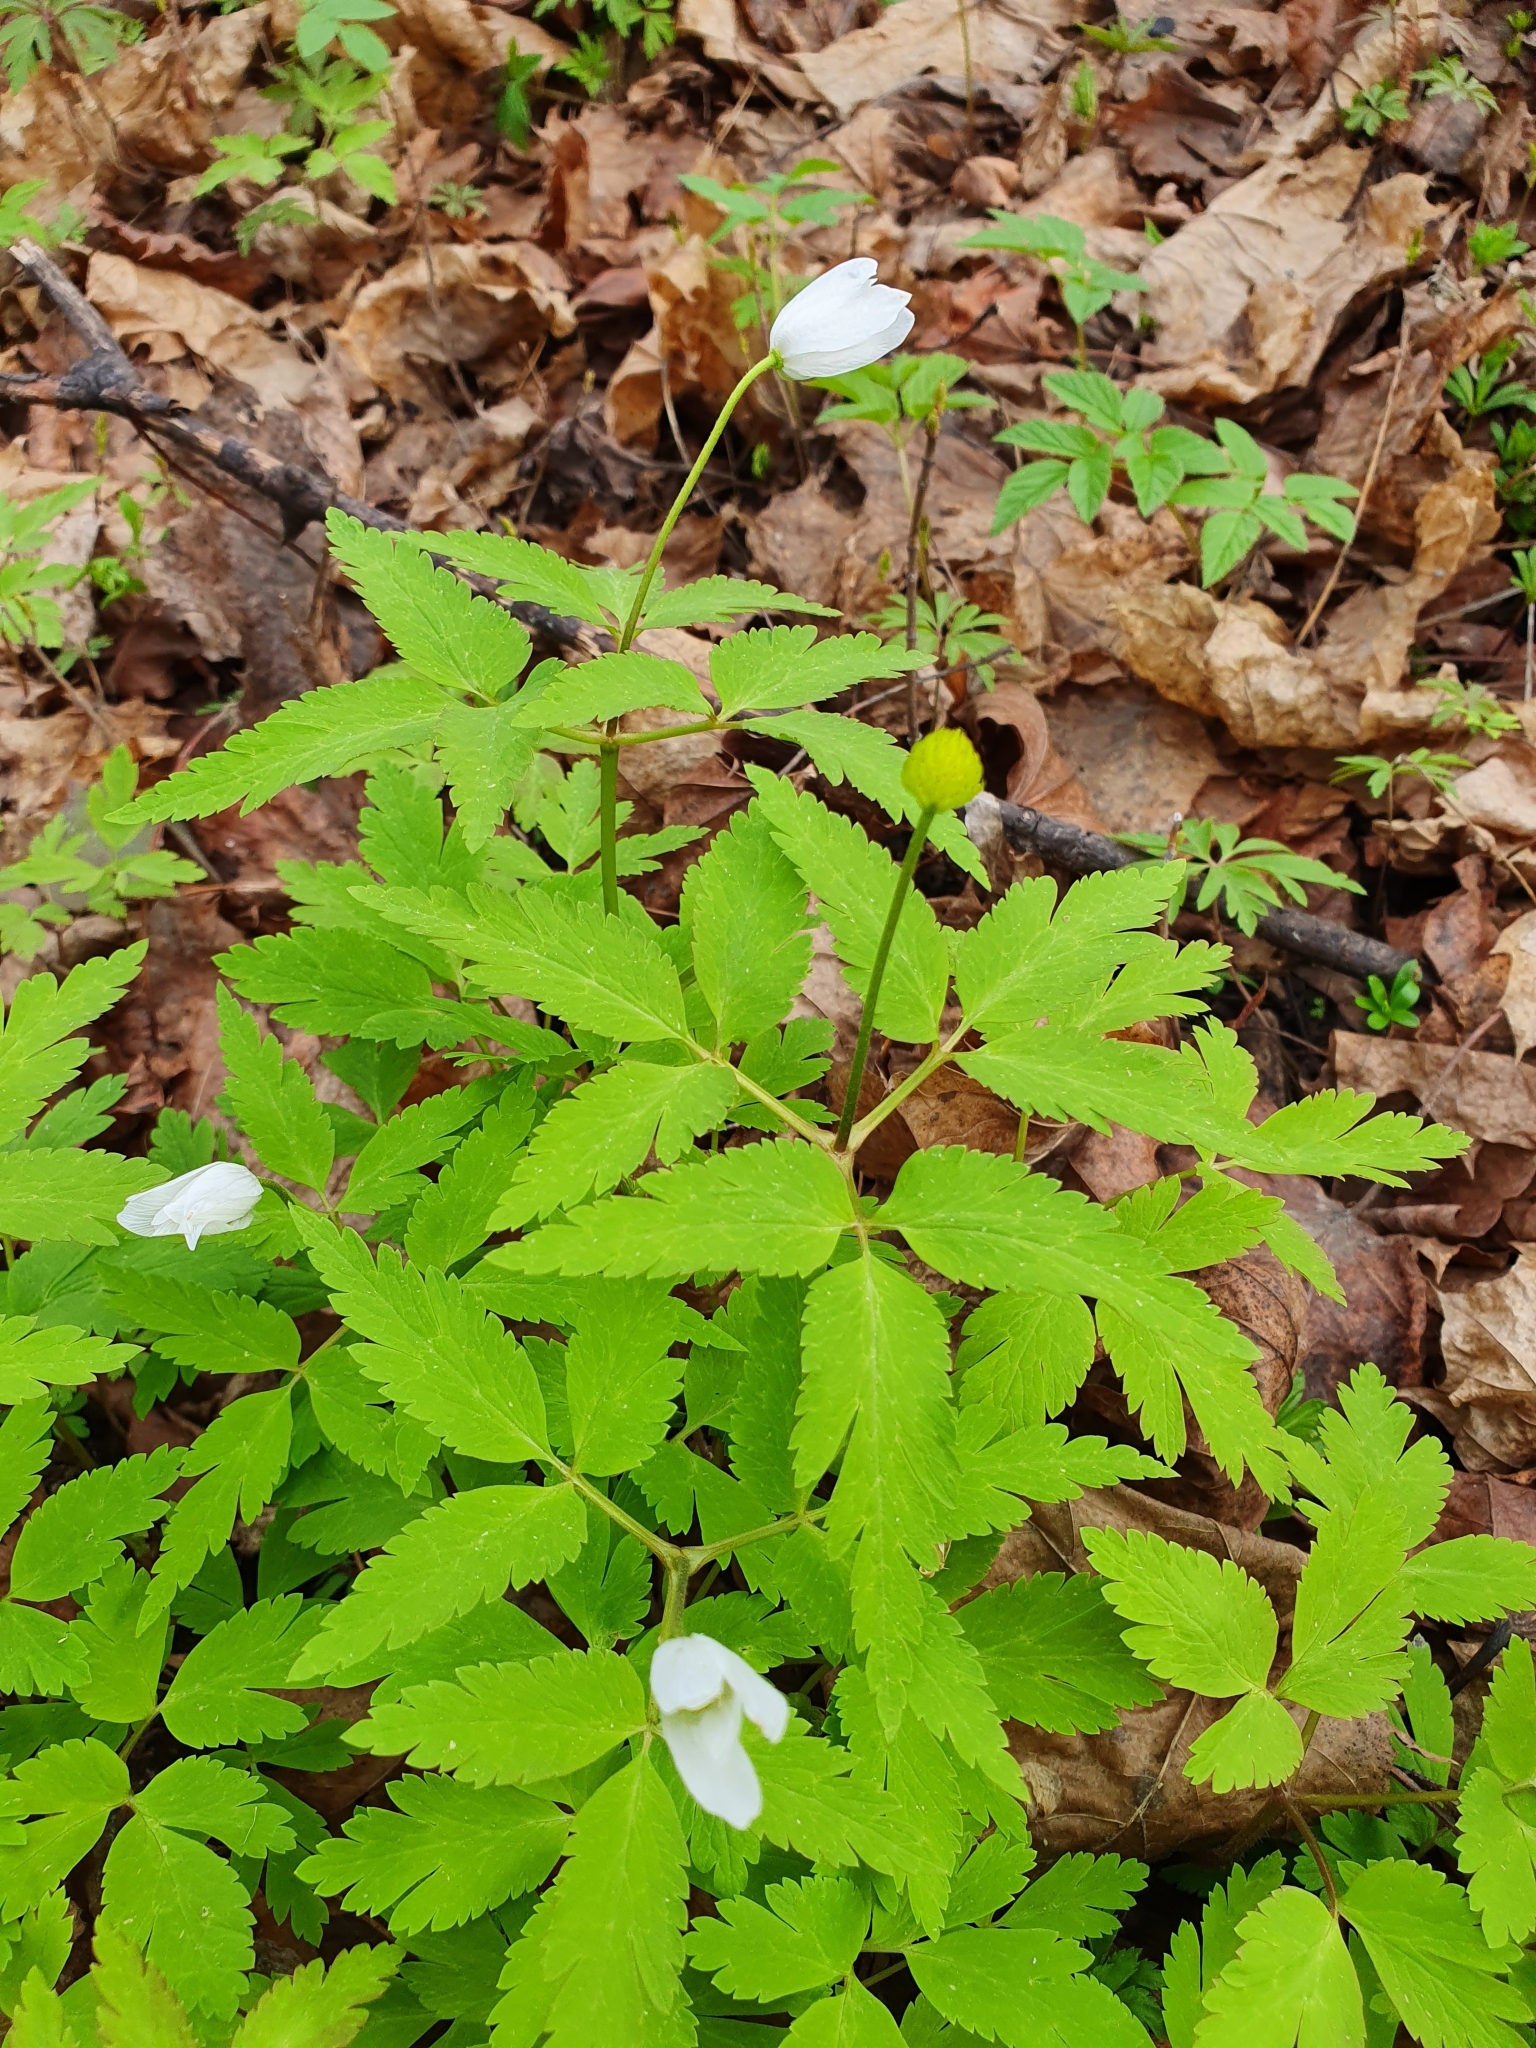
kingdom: Plantae
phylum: Tracheophyta
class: Magnoliopsida
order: Ranunculales
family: Ranunculaceae
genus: Anemone
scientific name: Anemone altaica
